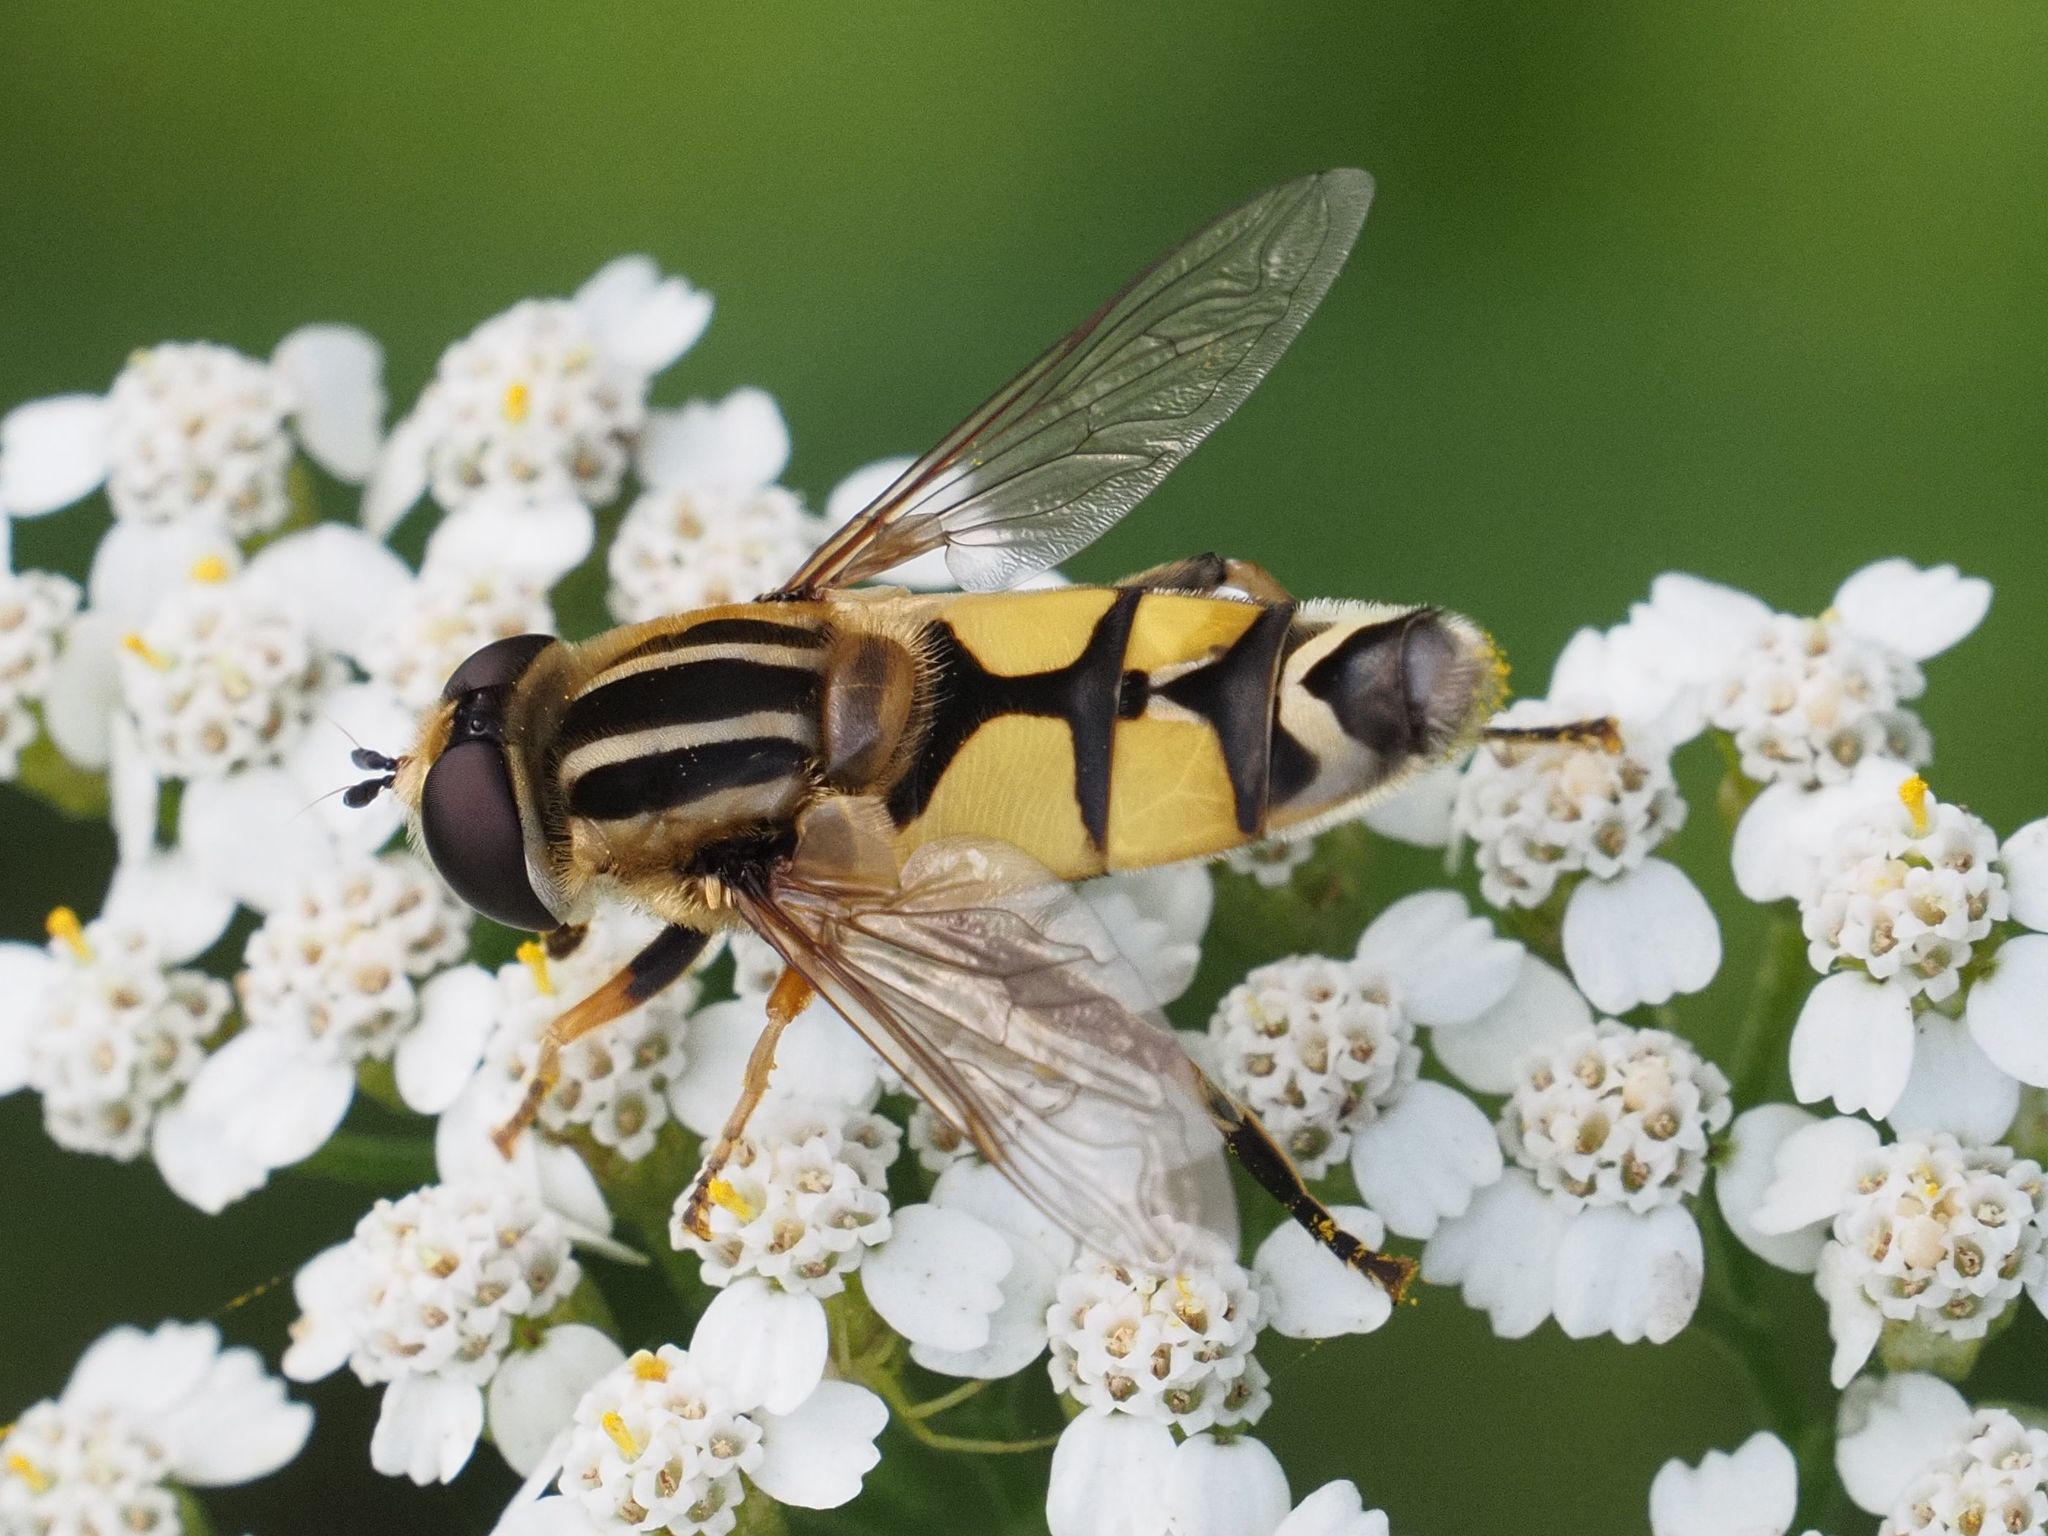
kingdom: Animalia
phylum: Arthropoda
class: Insecta
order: Diptera
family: Syrphidae
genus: Helophilus
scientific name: Helophilus trivittatus
